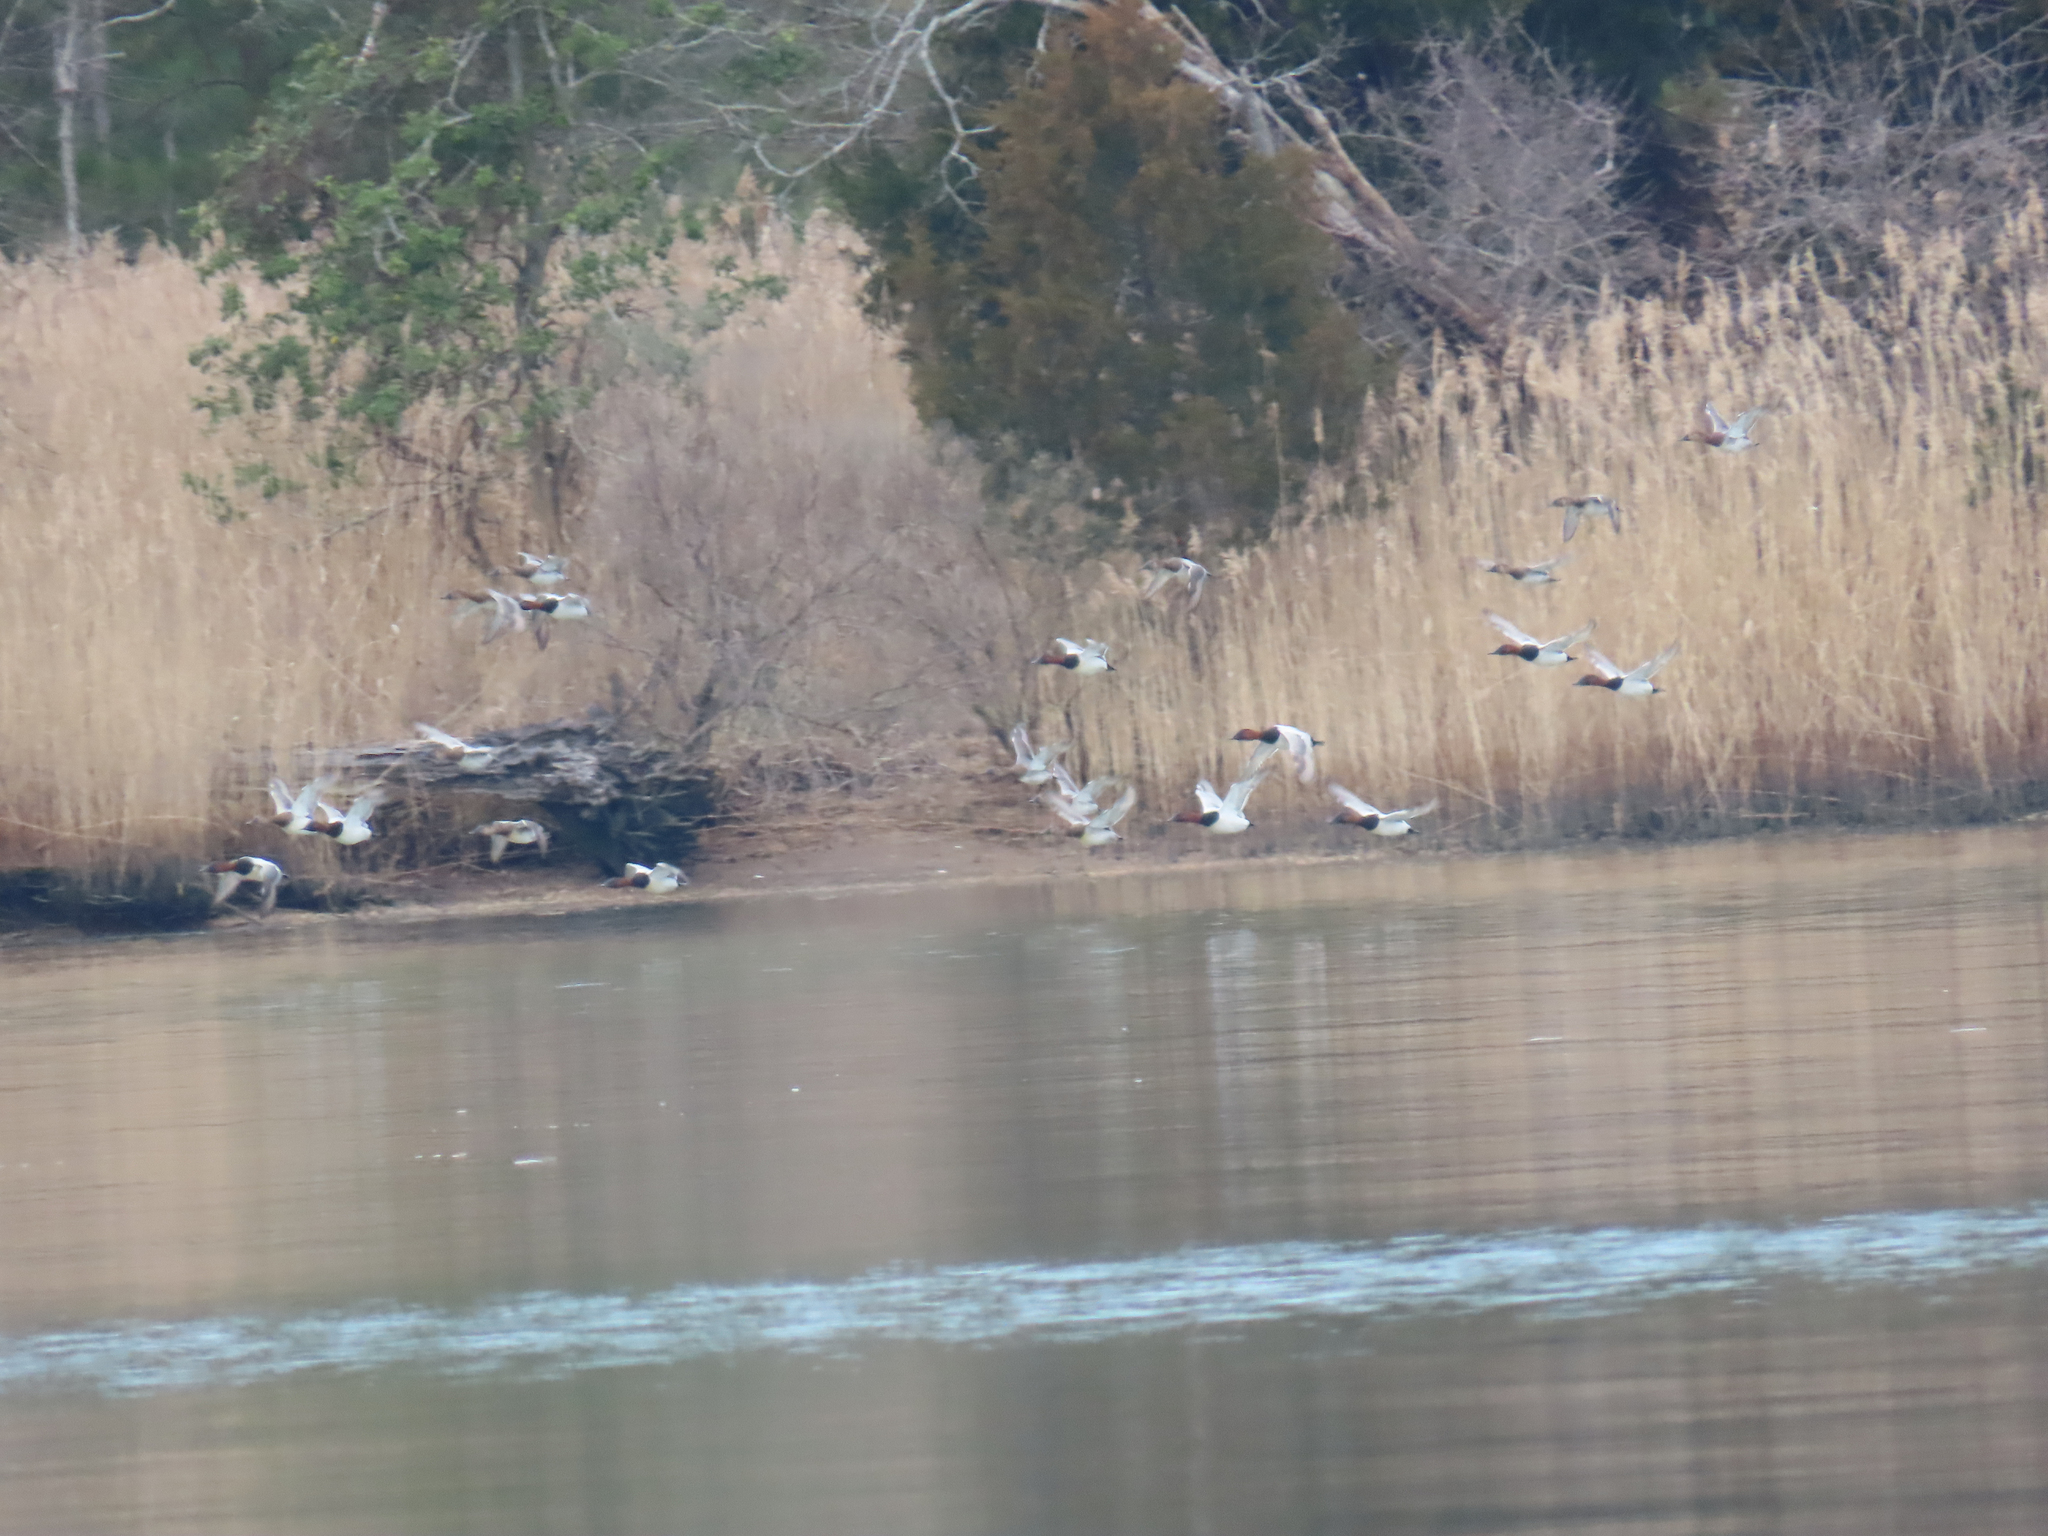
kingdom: Animalia
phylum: Chordata
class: Aves
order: Anseriformes
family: Anatidae
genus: Aythya
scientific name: Aythya valisineria
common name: Canvasback
